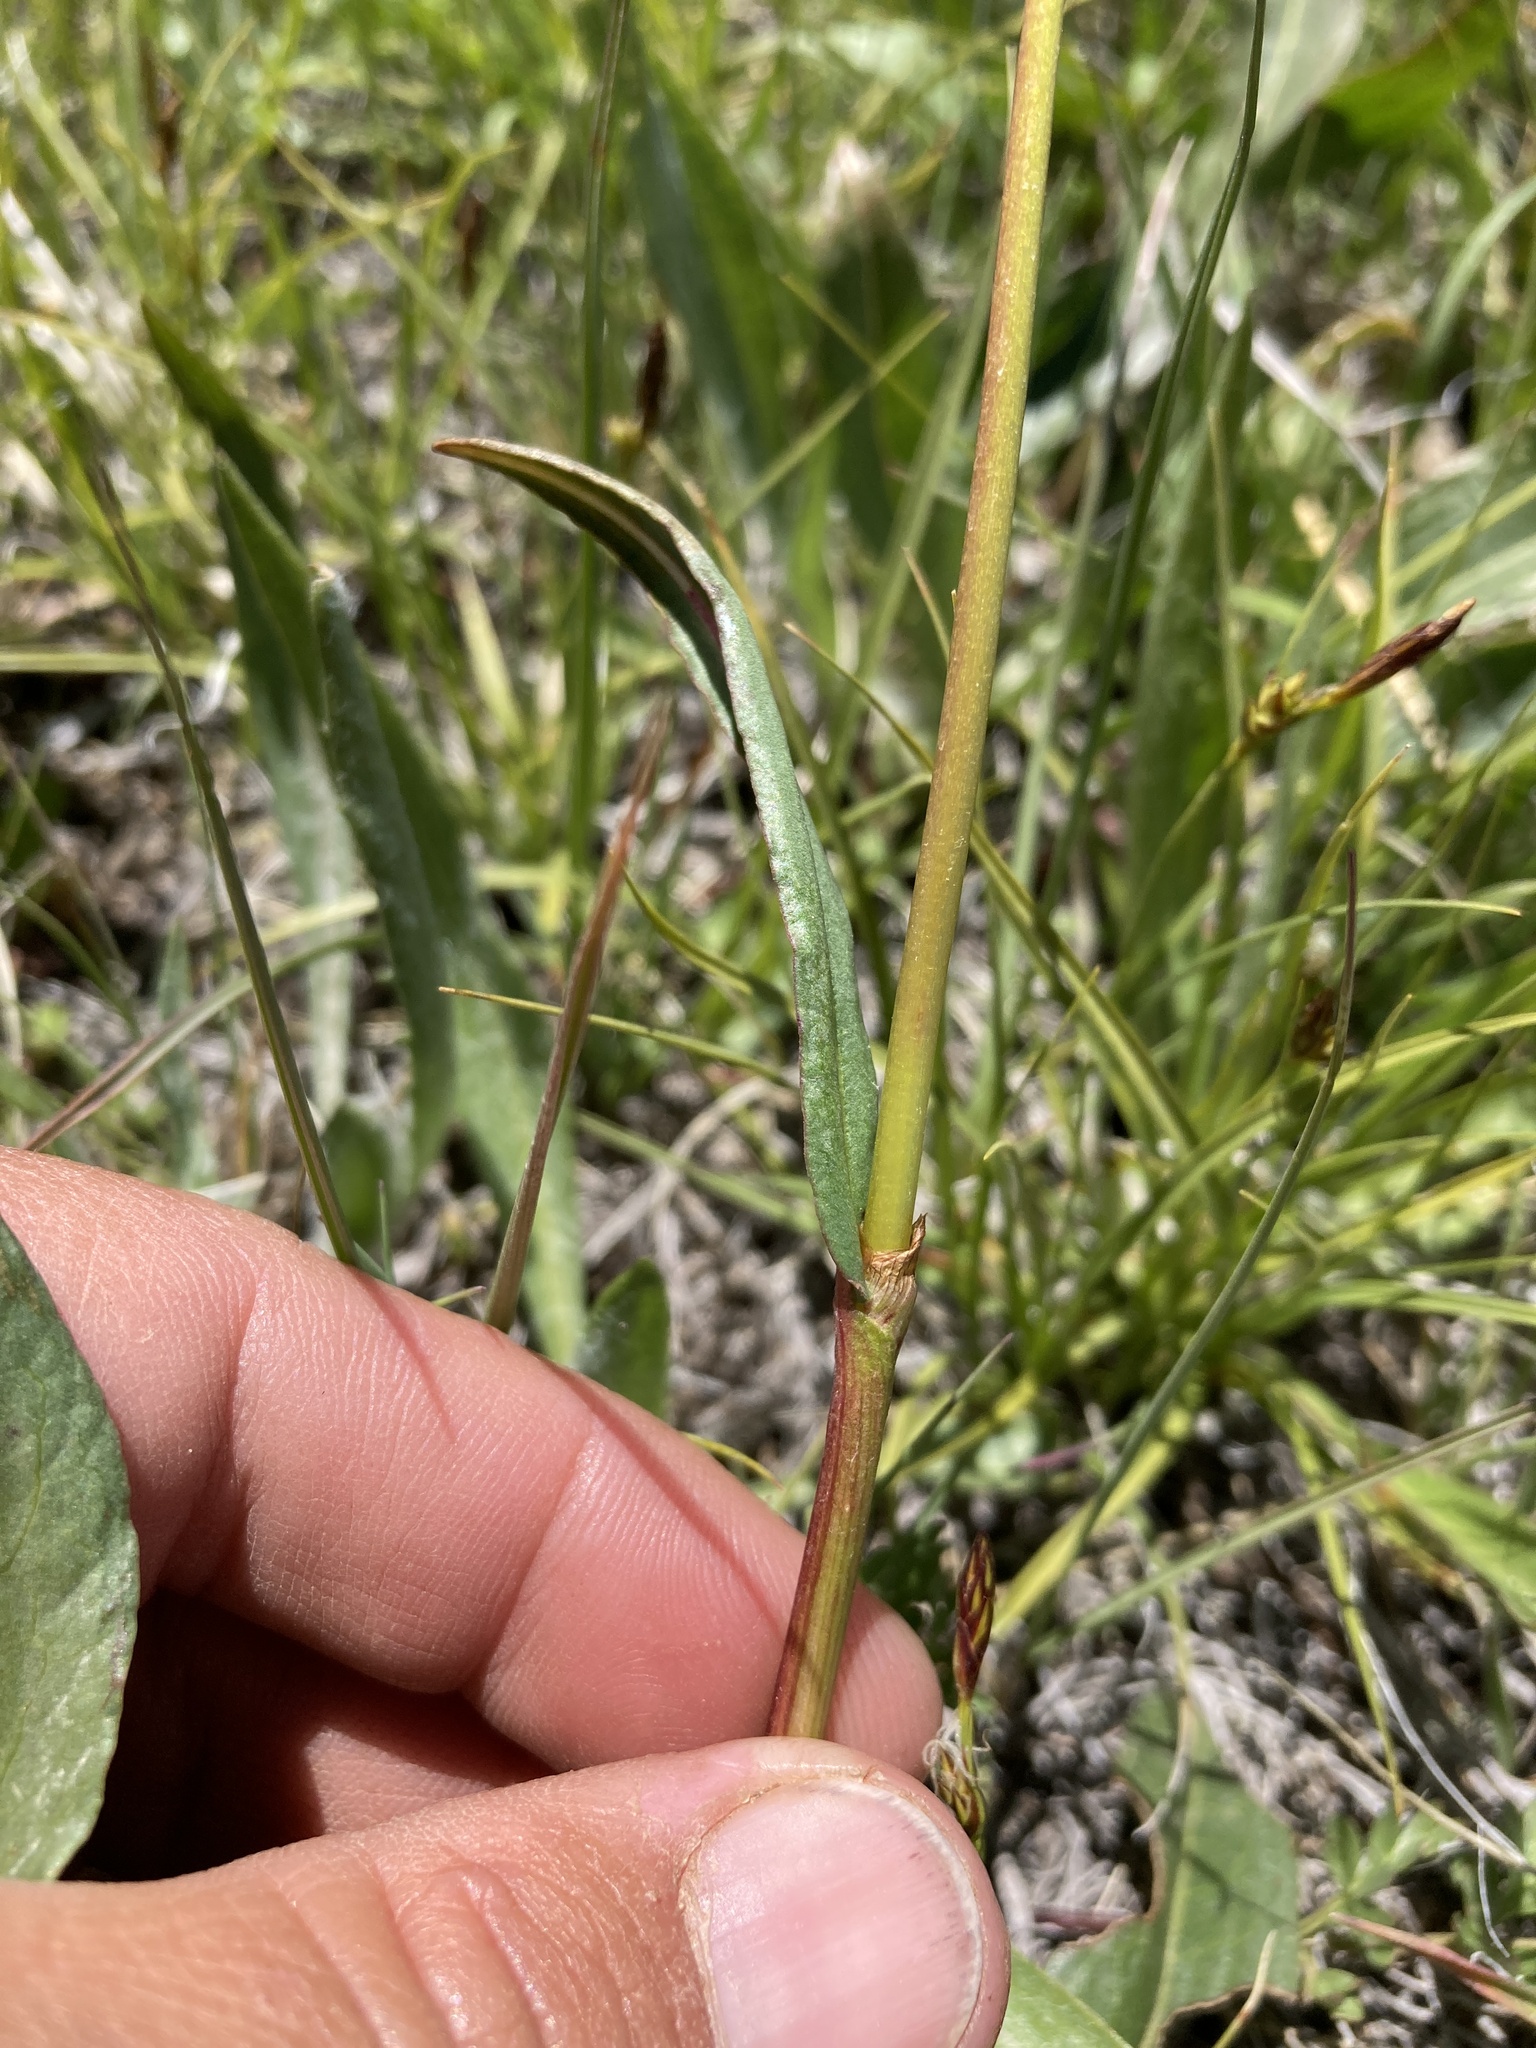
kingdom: Plantae
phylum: Tracheophyta
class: Magnoliopsida
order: Caryophyllales
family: Polygonaceae
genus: Bistorta
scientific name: Bistorta bistortoides
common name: American bistort
